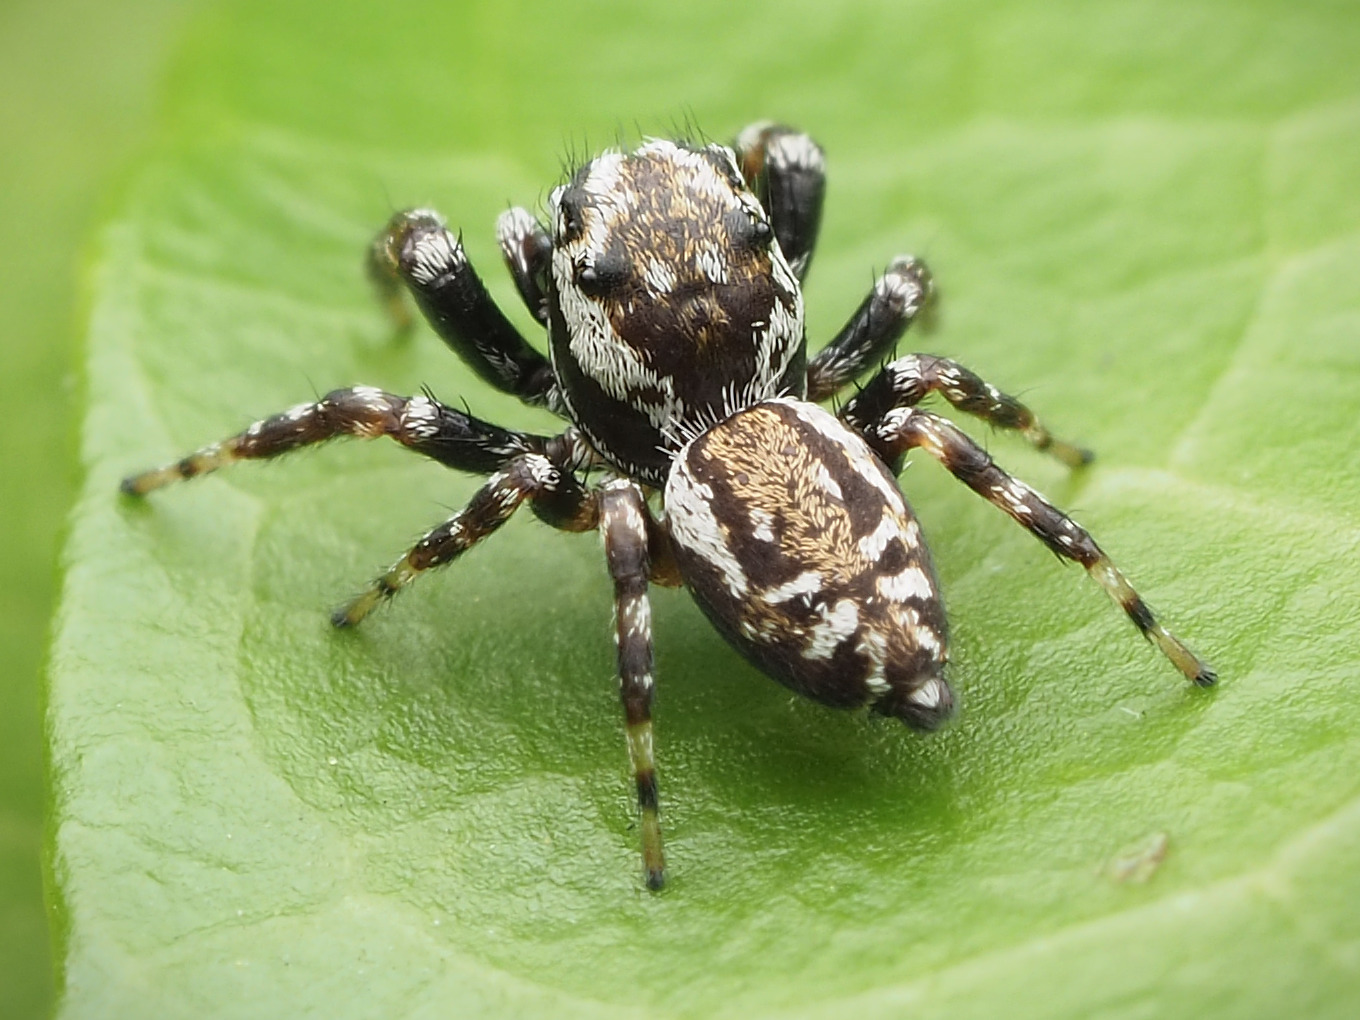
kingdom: Animalia
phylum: Arthropoda
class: Arachnida
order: Araneae
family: Salticidae
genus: Pelegrina
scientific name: Pelegrina galathea
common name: Jumping spiders
